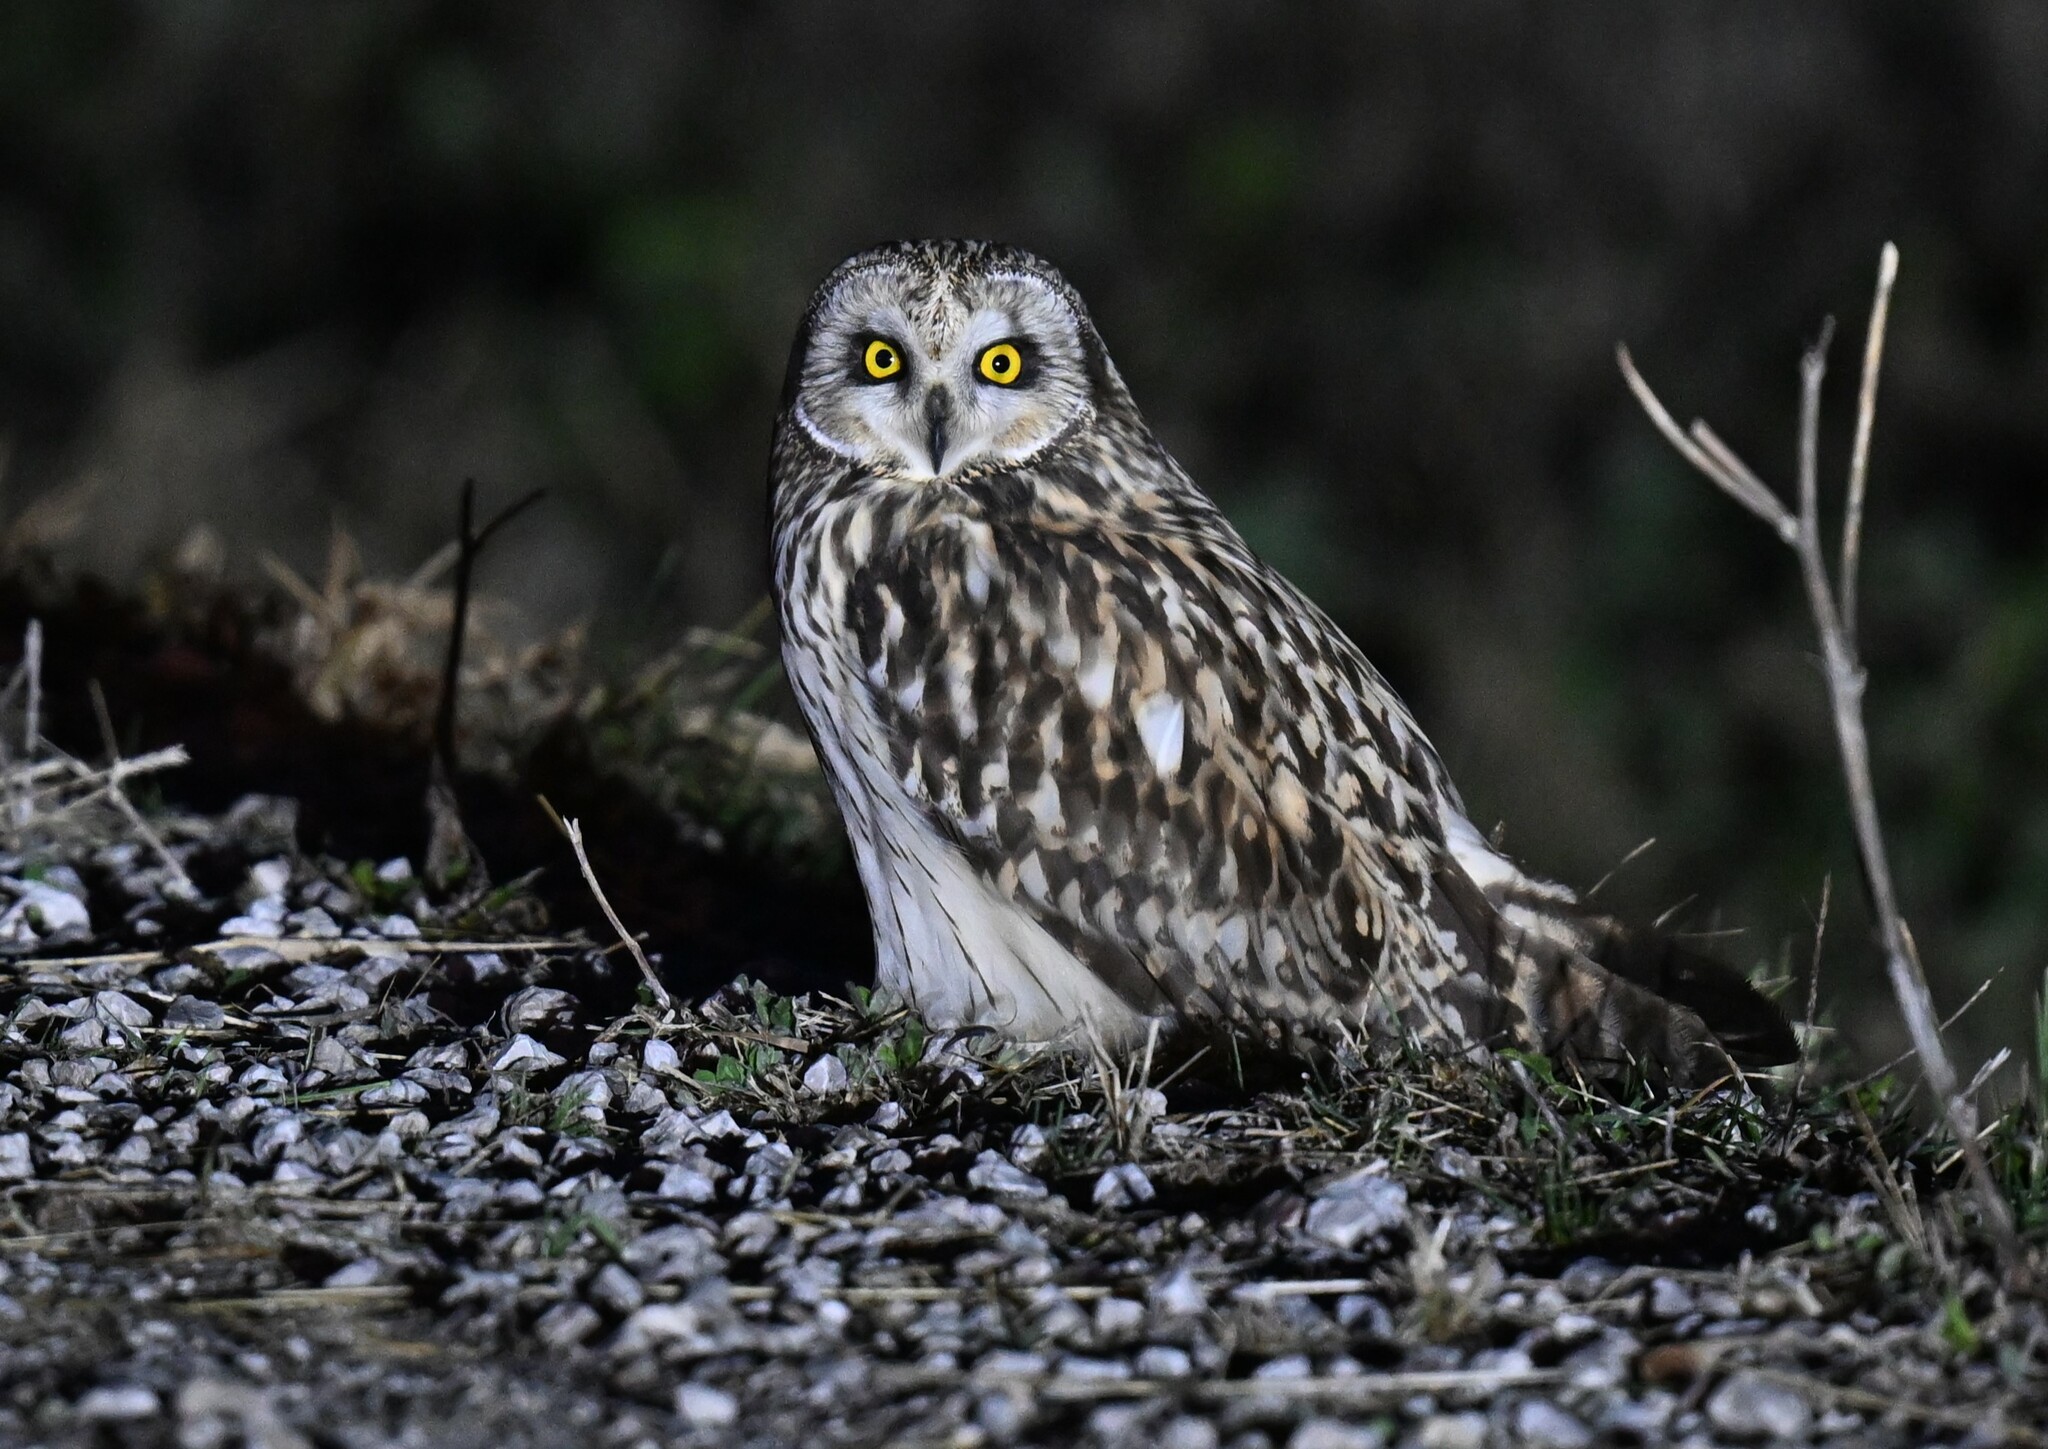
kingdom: Animalia
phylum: Chordata
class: Aves
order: Strigiformes
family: Strigidae
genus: Asio
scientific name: Asio flammeus
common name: Short-eared owl
